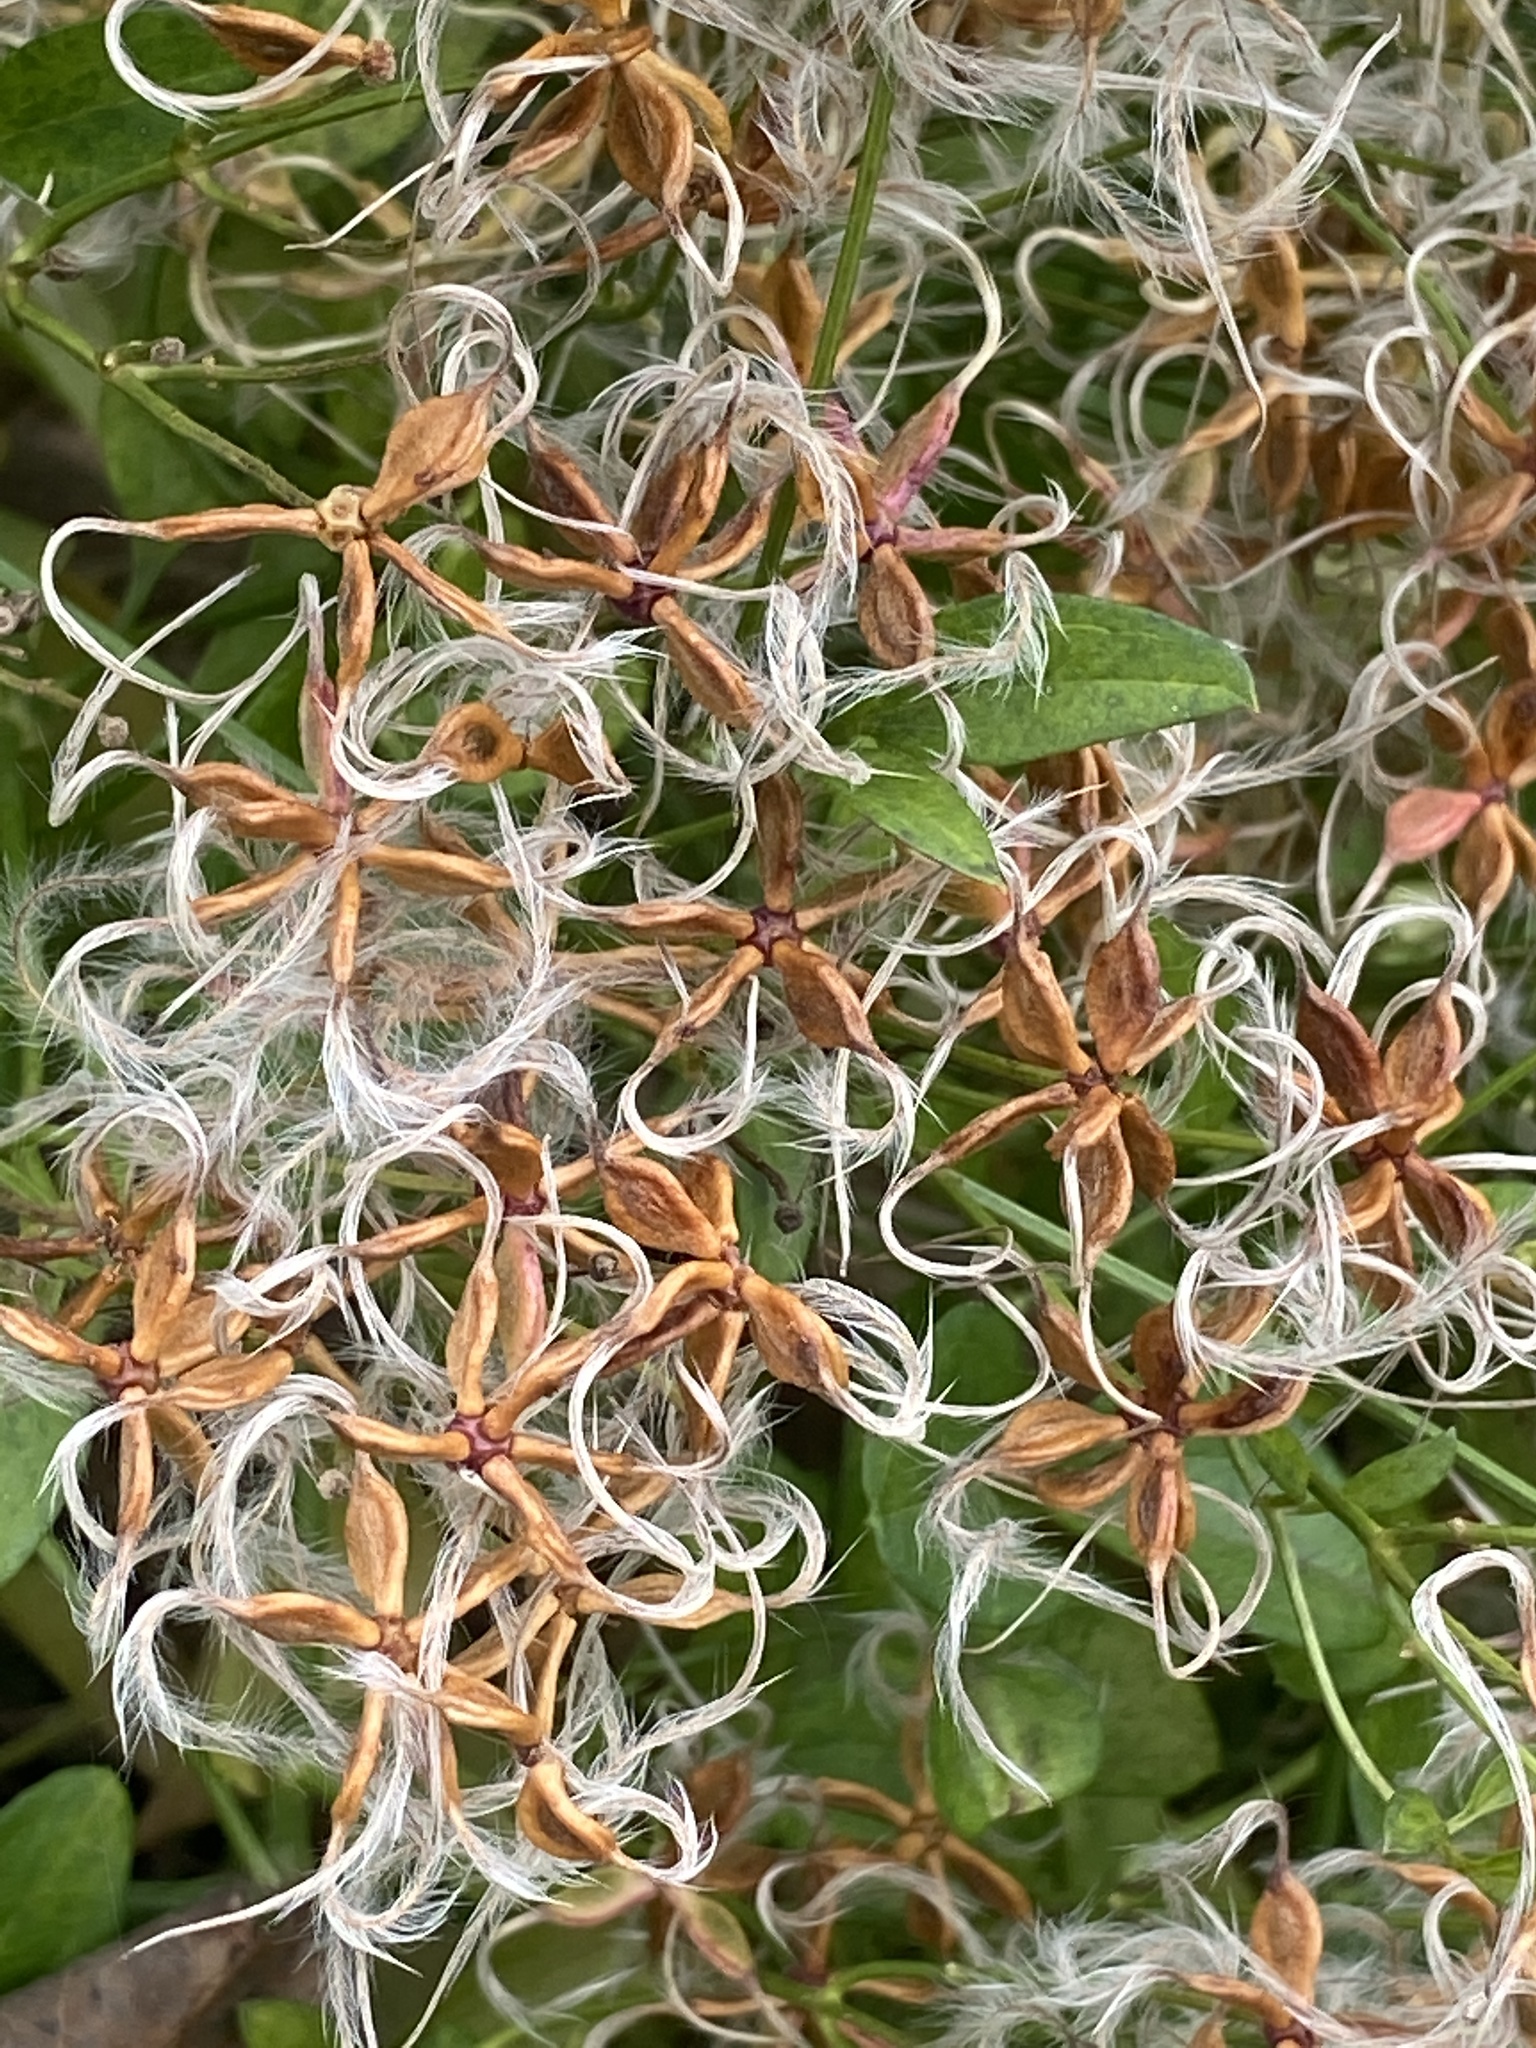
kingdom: Plantae
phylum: Tracheophyta
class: Magnoliopsida
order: Ranunculales
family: Ranunculaceae
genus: Clematis
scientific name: Clematis terniflora
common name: Sweet autumn clematis
